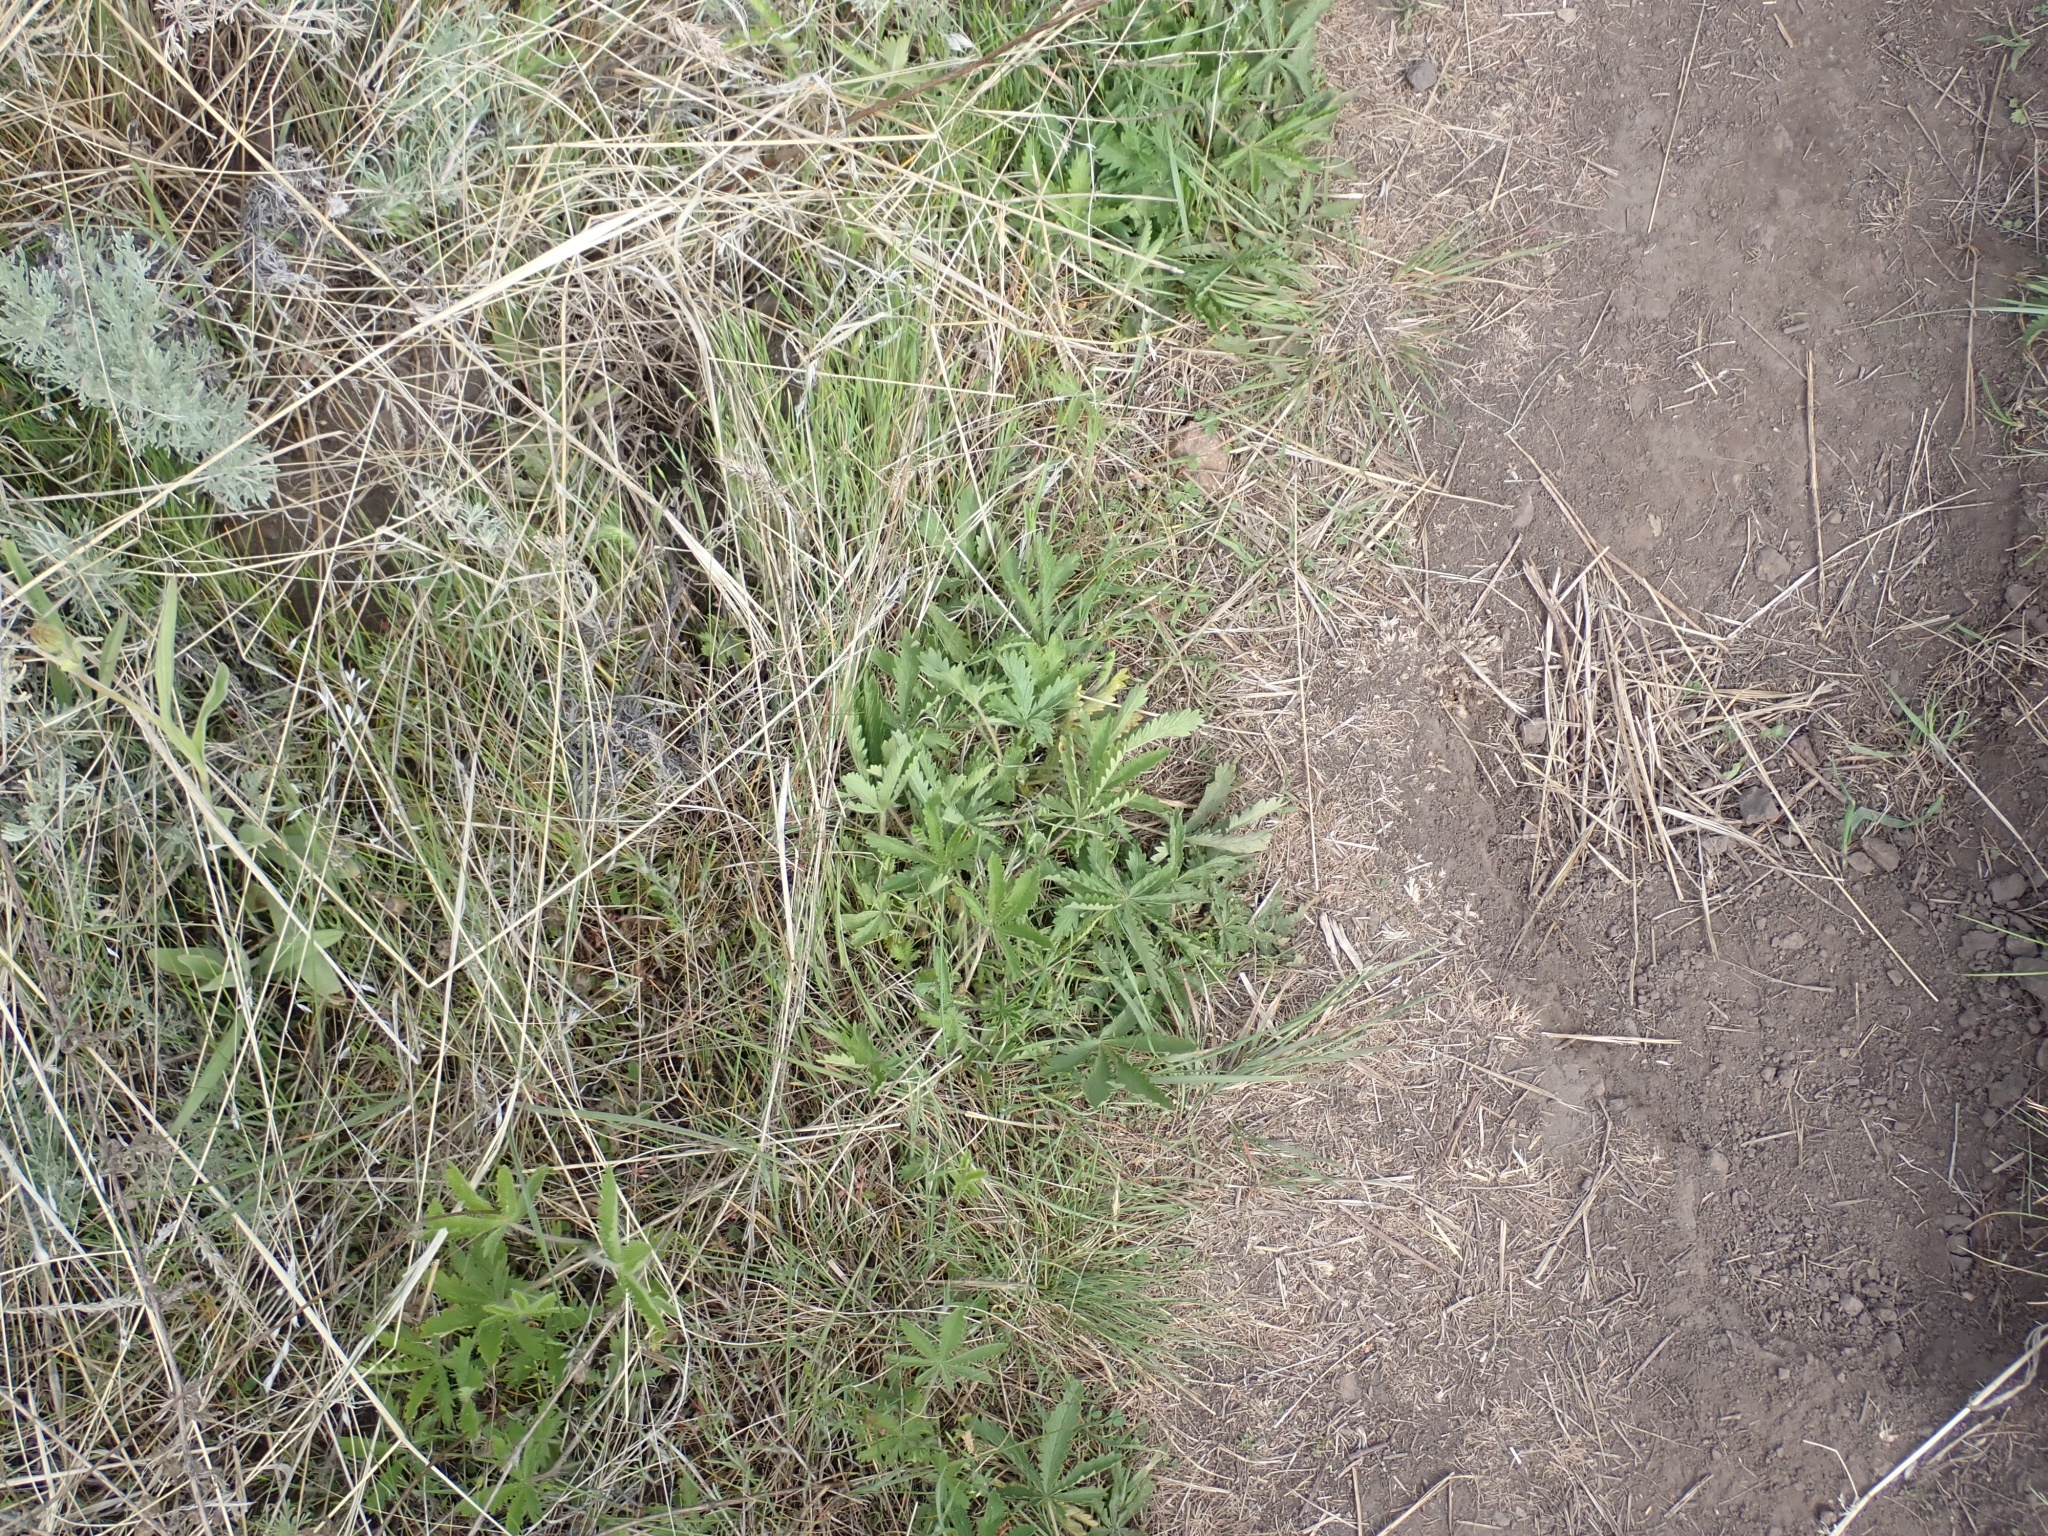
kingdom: Plantae
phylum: Tracheophyta
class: Magnoliopsida
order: Rosales
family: Rosaceae
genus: Potentilla
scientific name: Potentilla recta
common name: Sulphur cinquefoil
